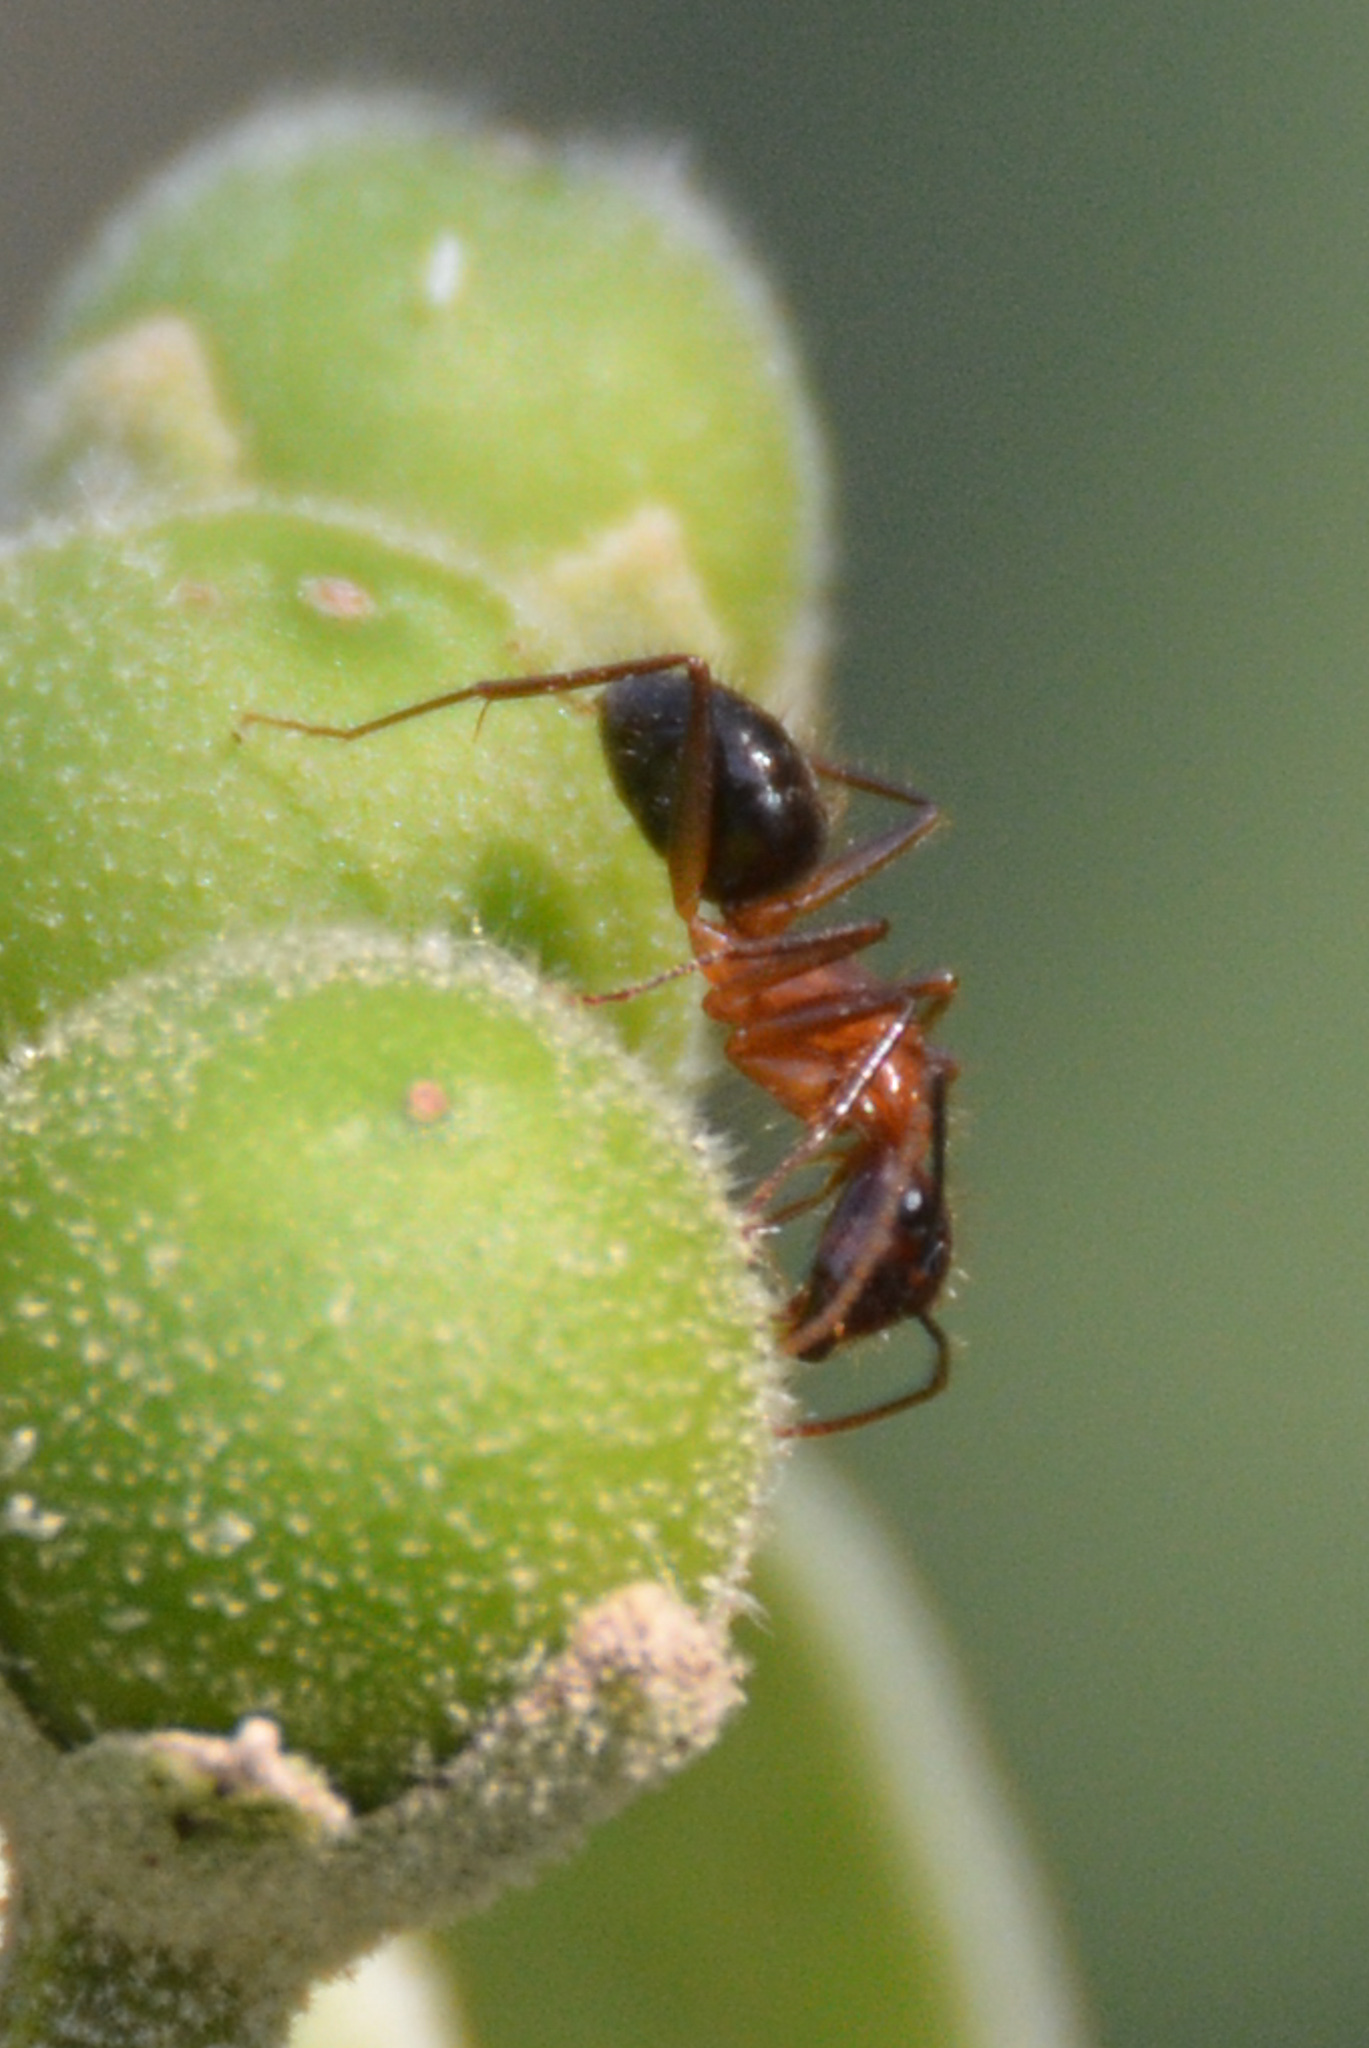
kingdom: Animalia
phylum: Arthropoda
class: Insecta
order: Hymenoptera
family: Formicidae
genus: Camponotus
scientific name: Camponotus atriceps
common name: Florida carpenter ant
